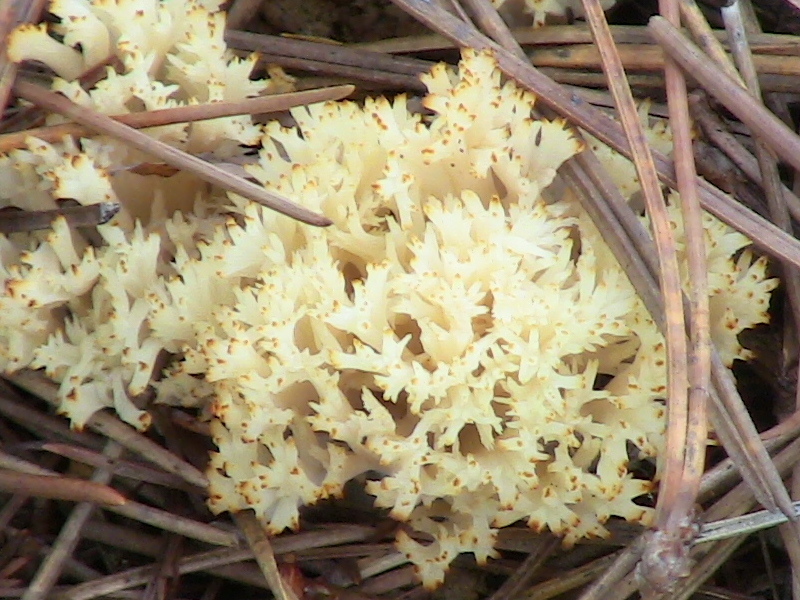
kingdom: Fungi
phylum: Basidiomycota
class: Agaricomycetes
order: Cantharellales
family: Hydnaceae
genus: Clavulina
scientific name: Clavulina coralloides
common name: Crested coral
